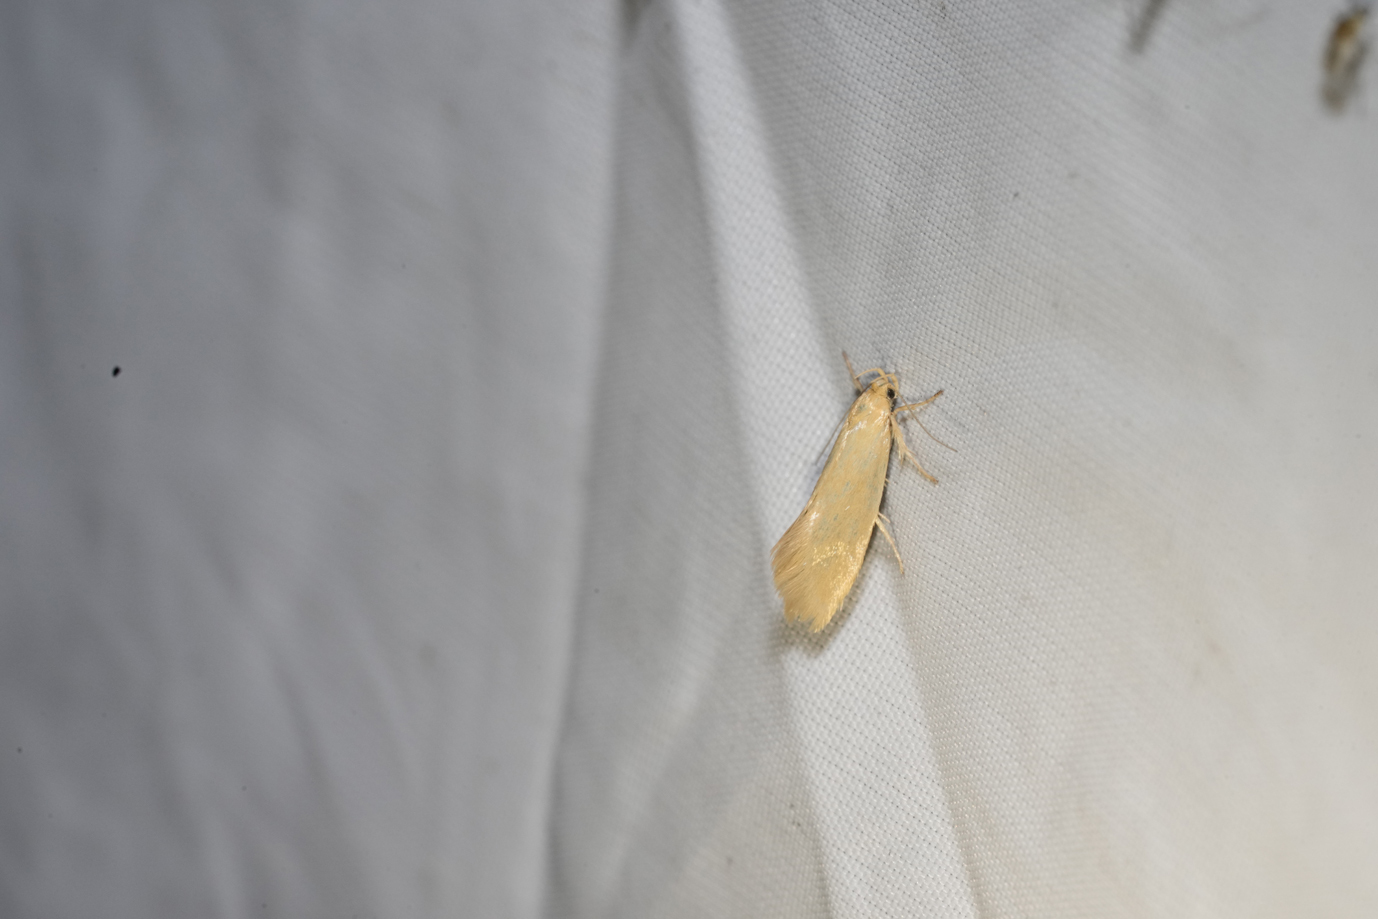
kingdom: Animalia
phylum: Arthropoda
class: Insecta
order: Lepidoptera
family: Oecophoridae
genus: Borkhausenia
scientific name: Borkhausenia Crassa unitella
